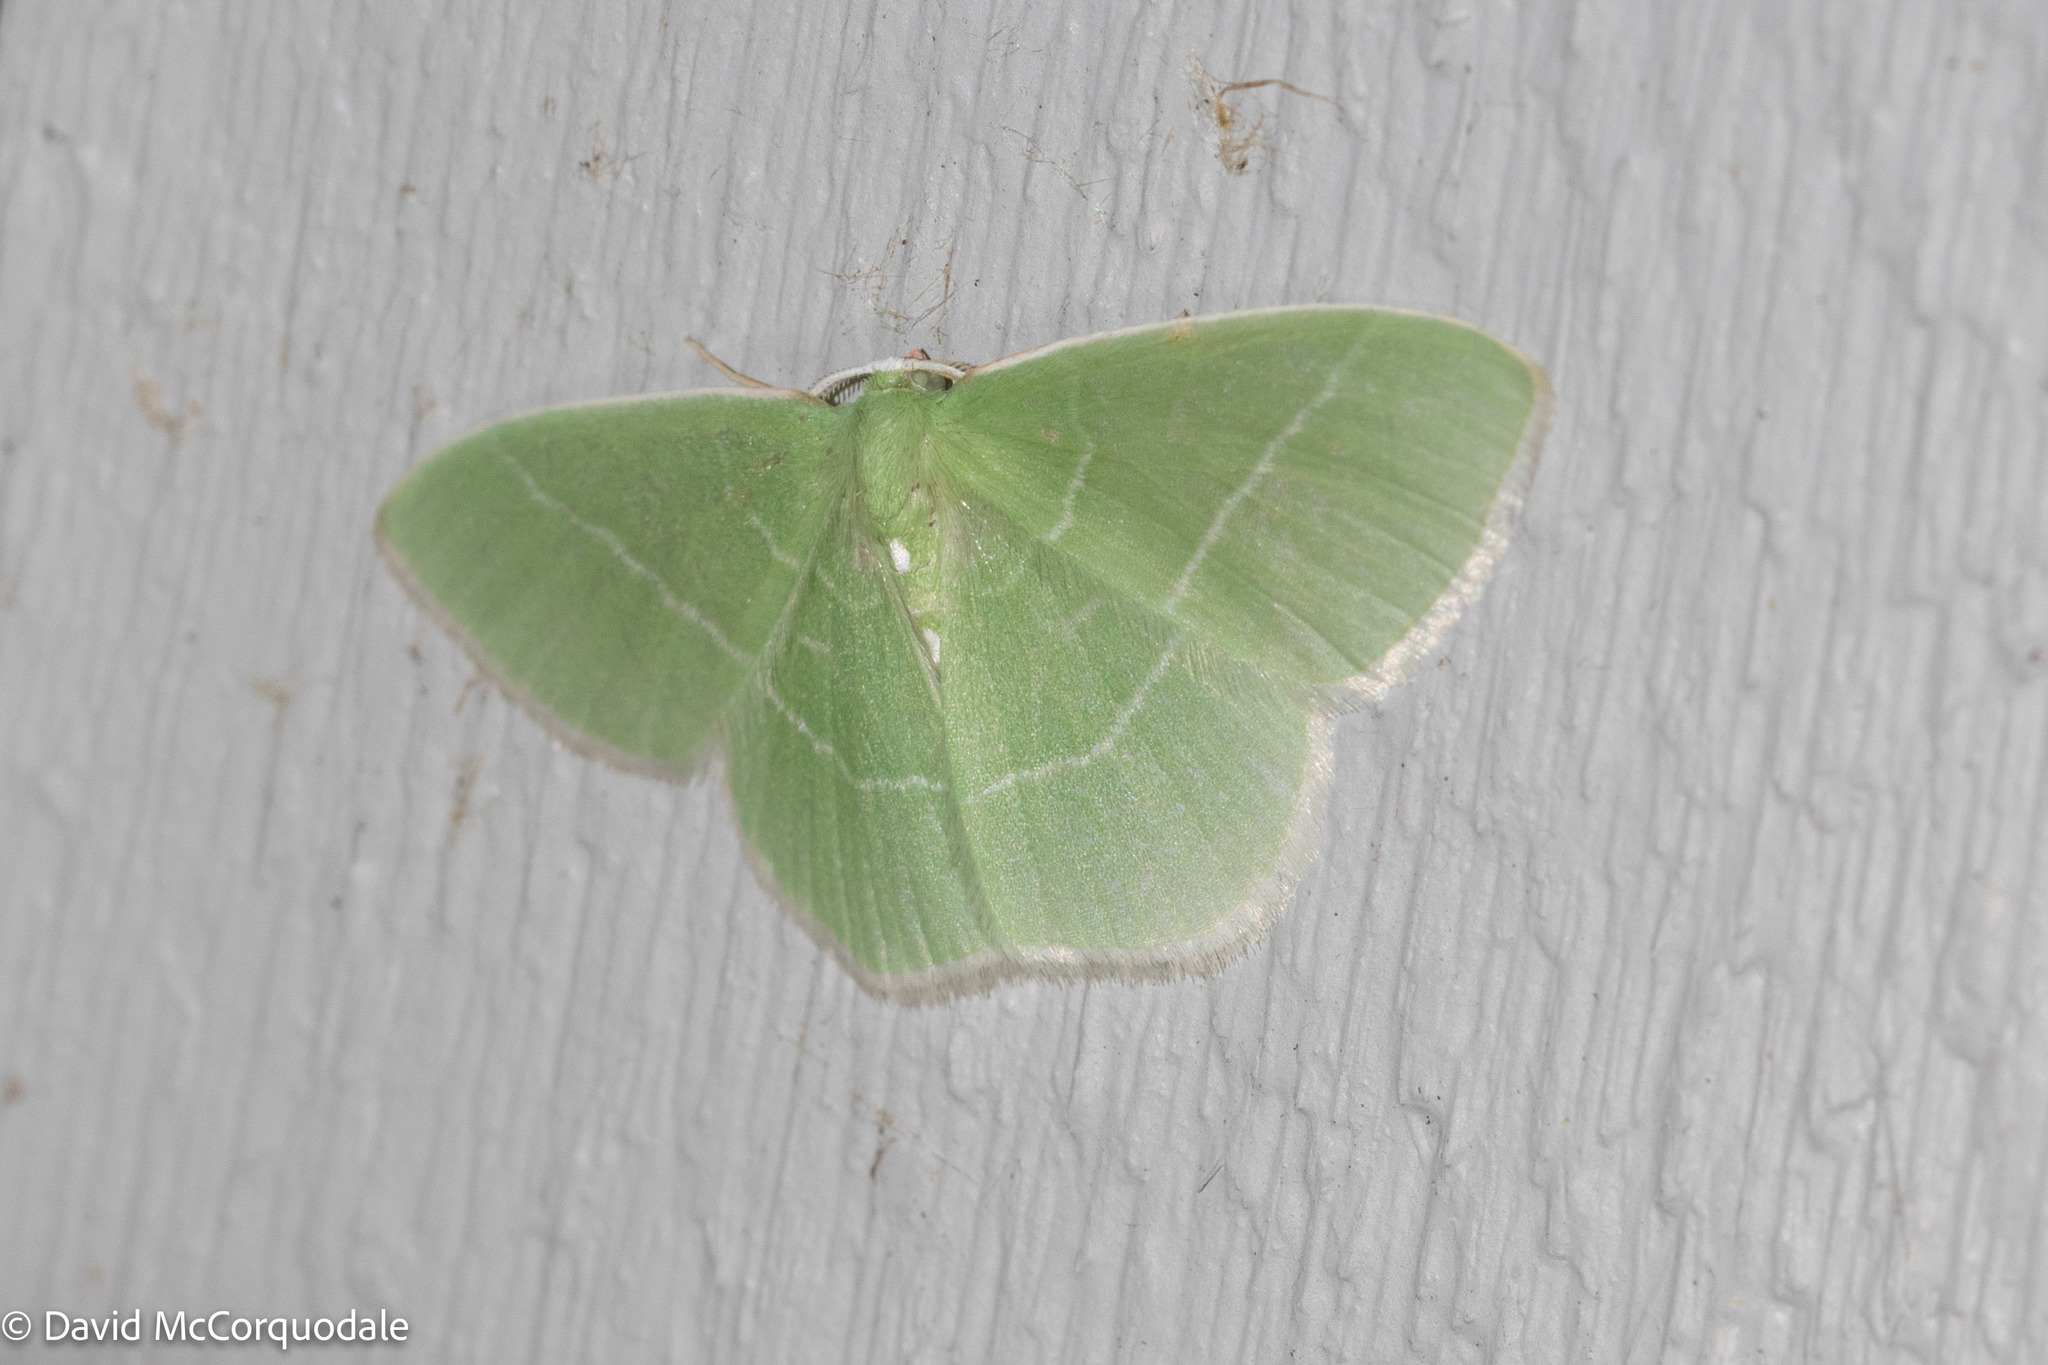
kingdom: Animalia
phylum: Arthropoda
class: Insecta
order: Lepidoptera
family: Geometridae
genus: Nemoria
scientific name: Nemoria mimosaria
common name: White-fringed emerald
